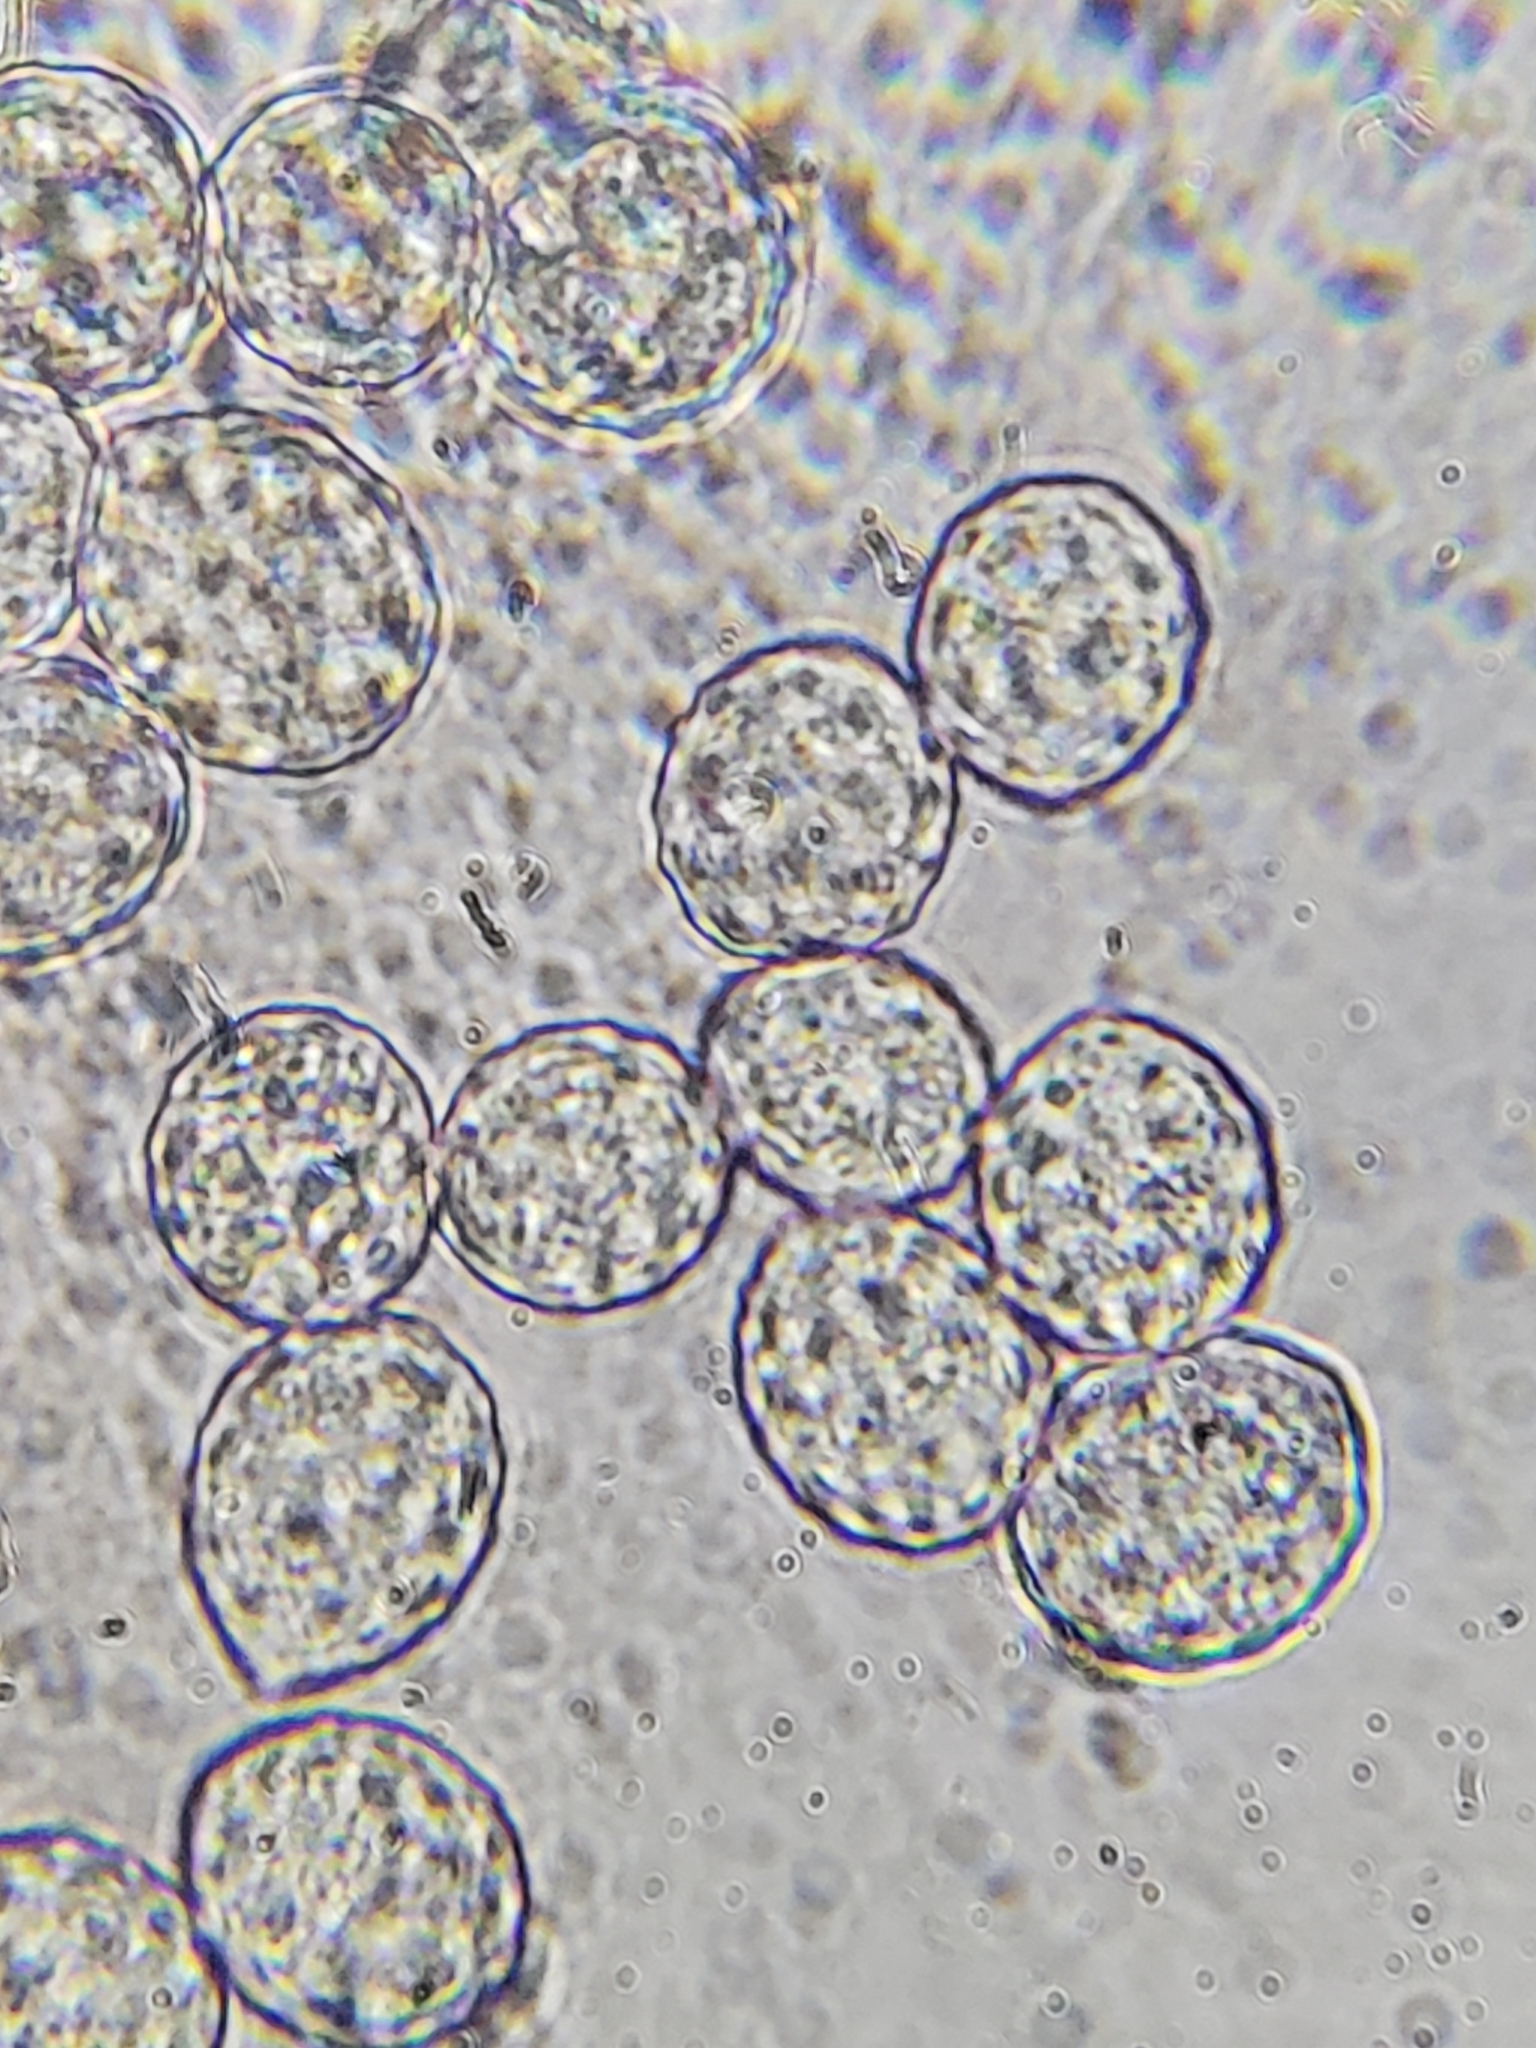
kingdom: Fungi
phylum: Entomophthoromycota
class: Entomophthoromycetes
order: Entomophthorales
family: Entomophthoraceae
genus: Massospora
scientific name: Massospora cicadina
